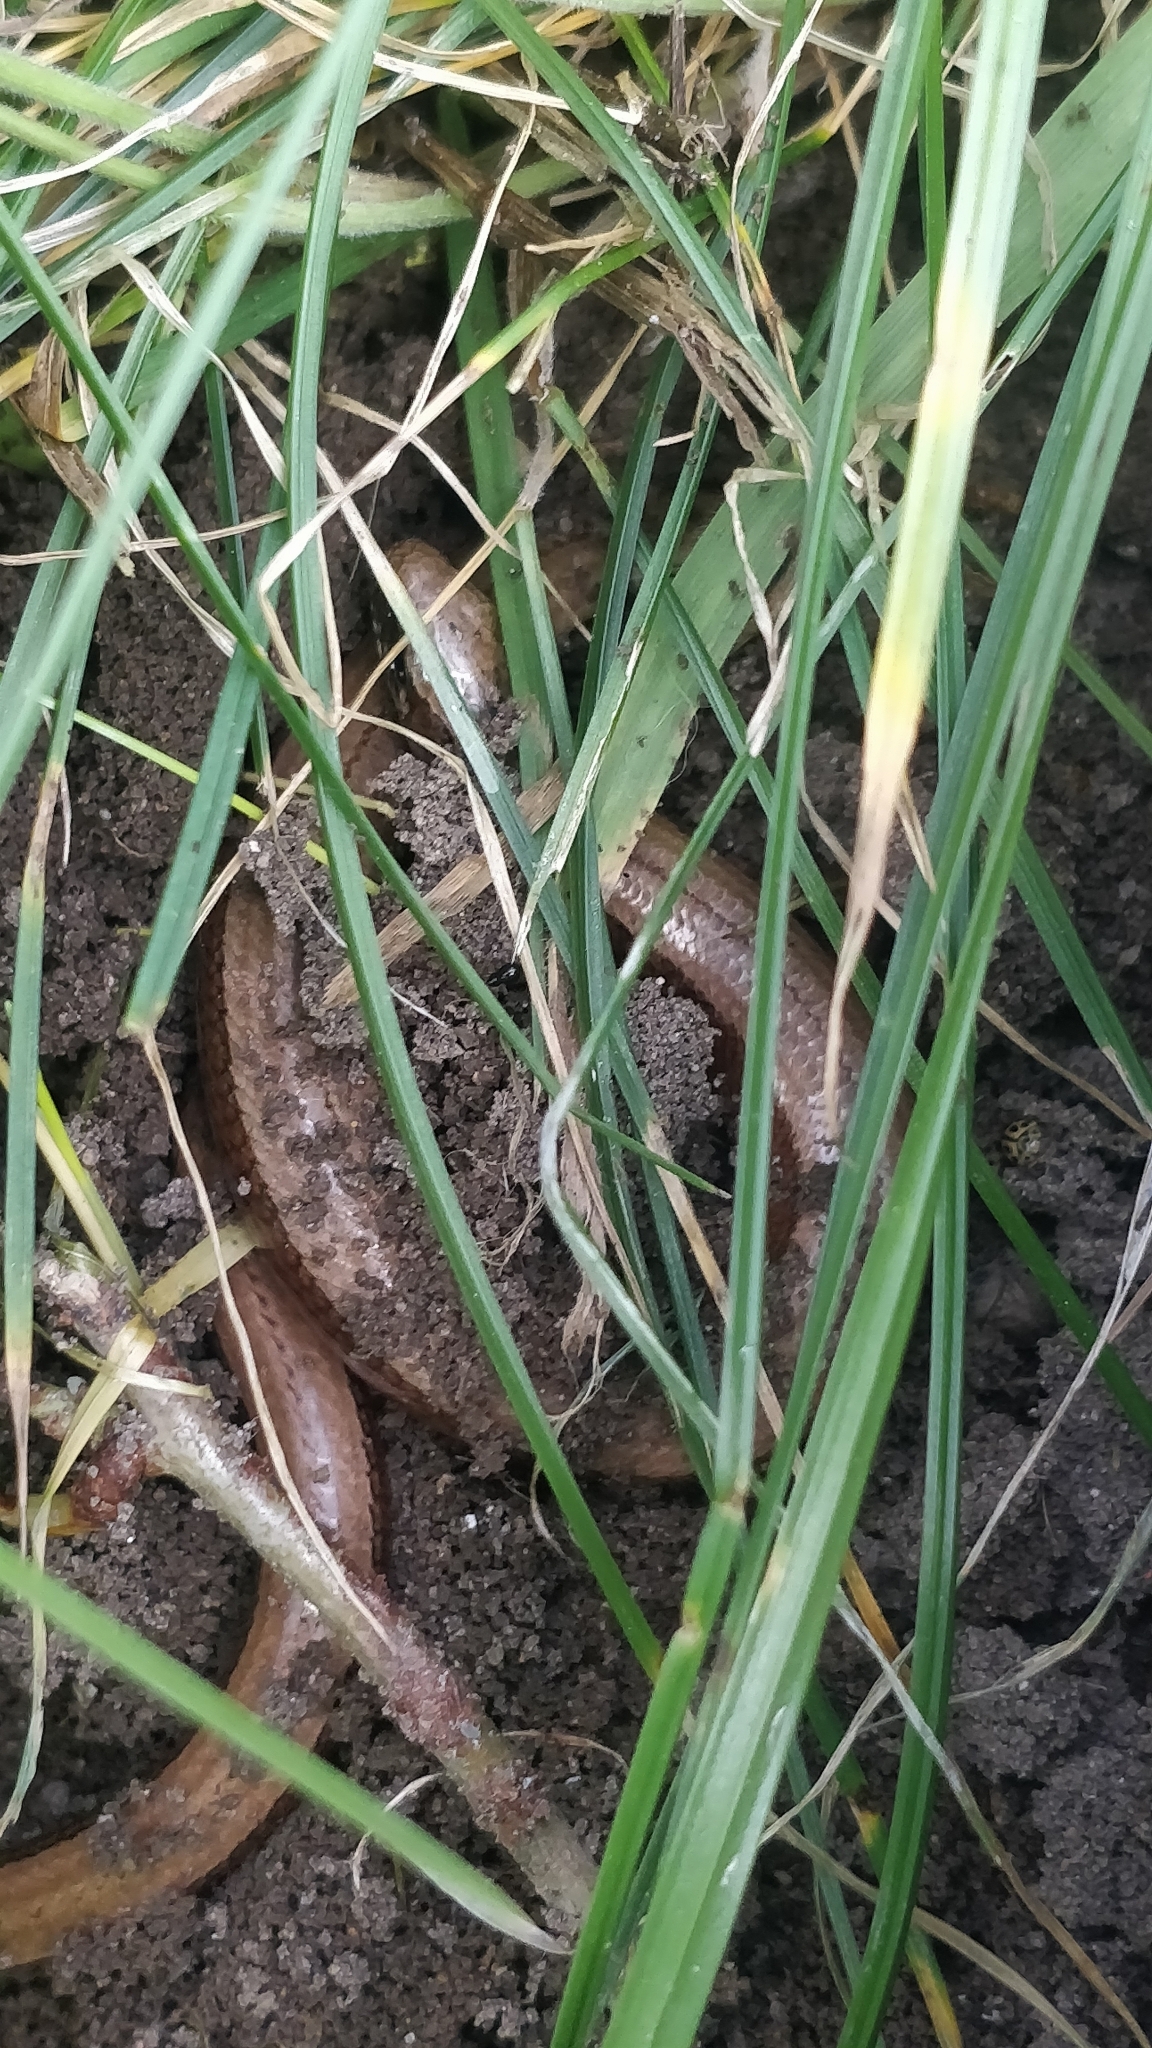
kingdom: Animalia
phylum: Chordata
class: Squamata
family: Anguidae
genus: Anguis
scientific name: Anguis fragilis
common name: Slow worm
